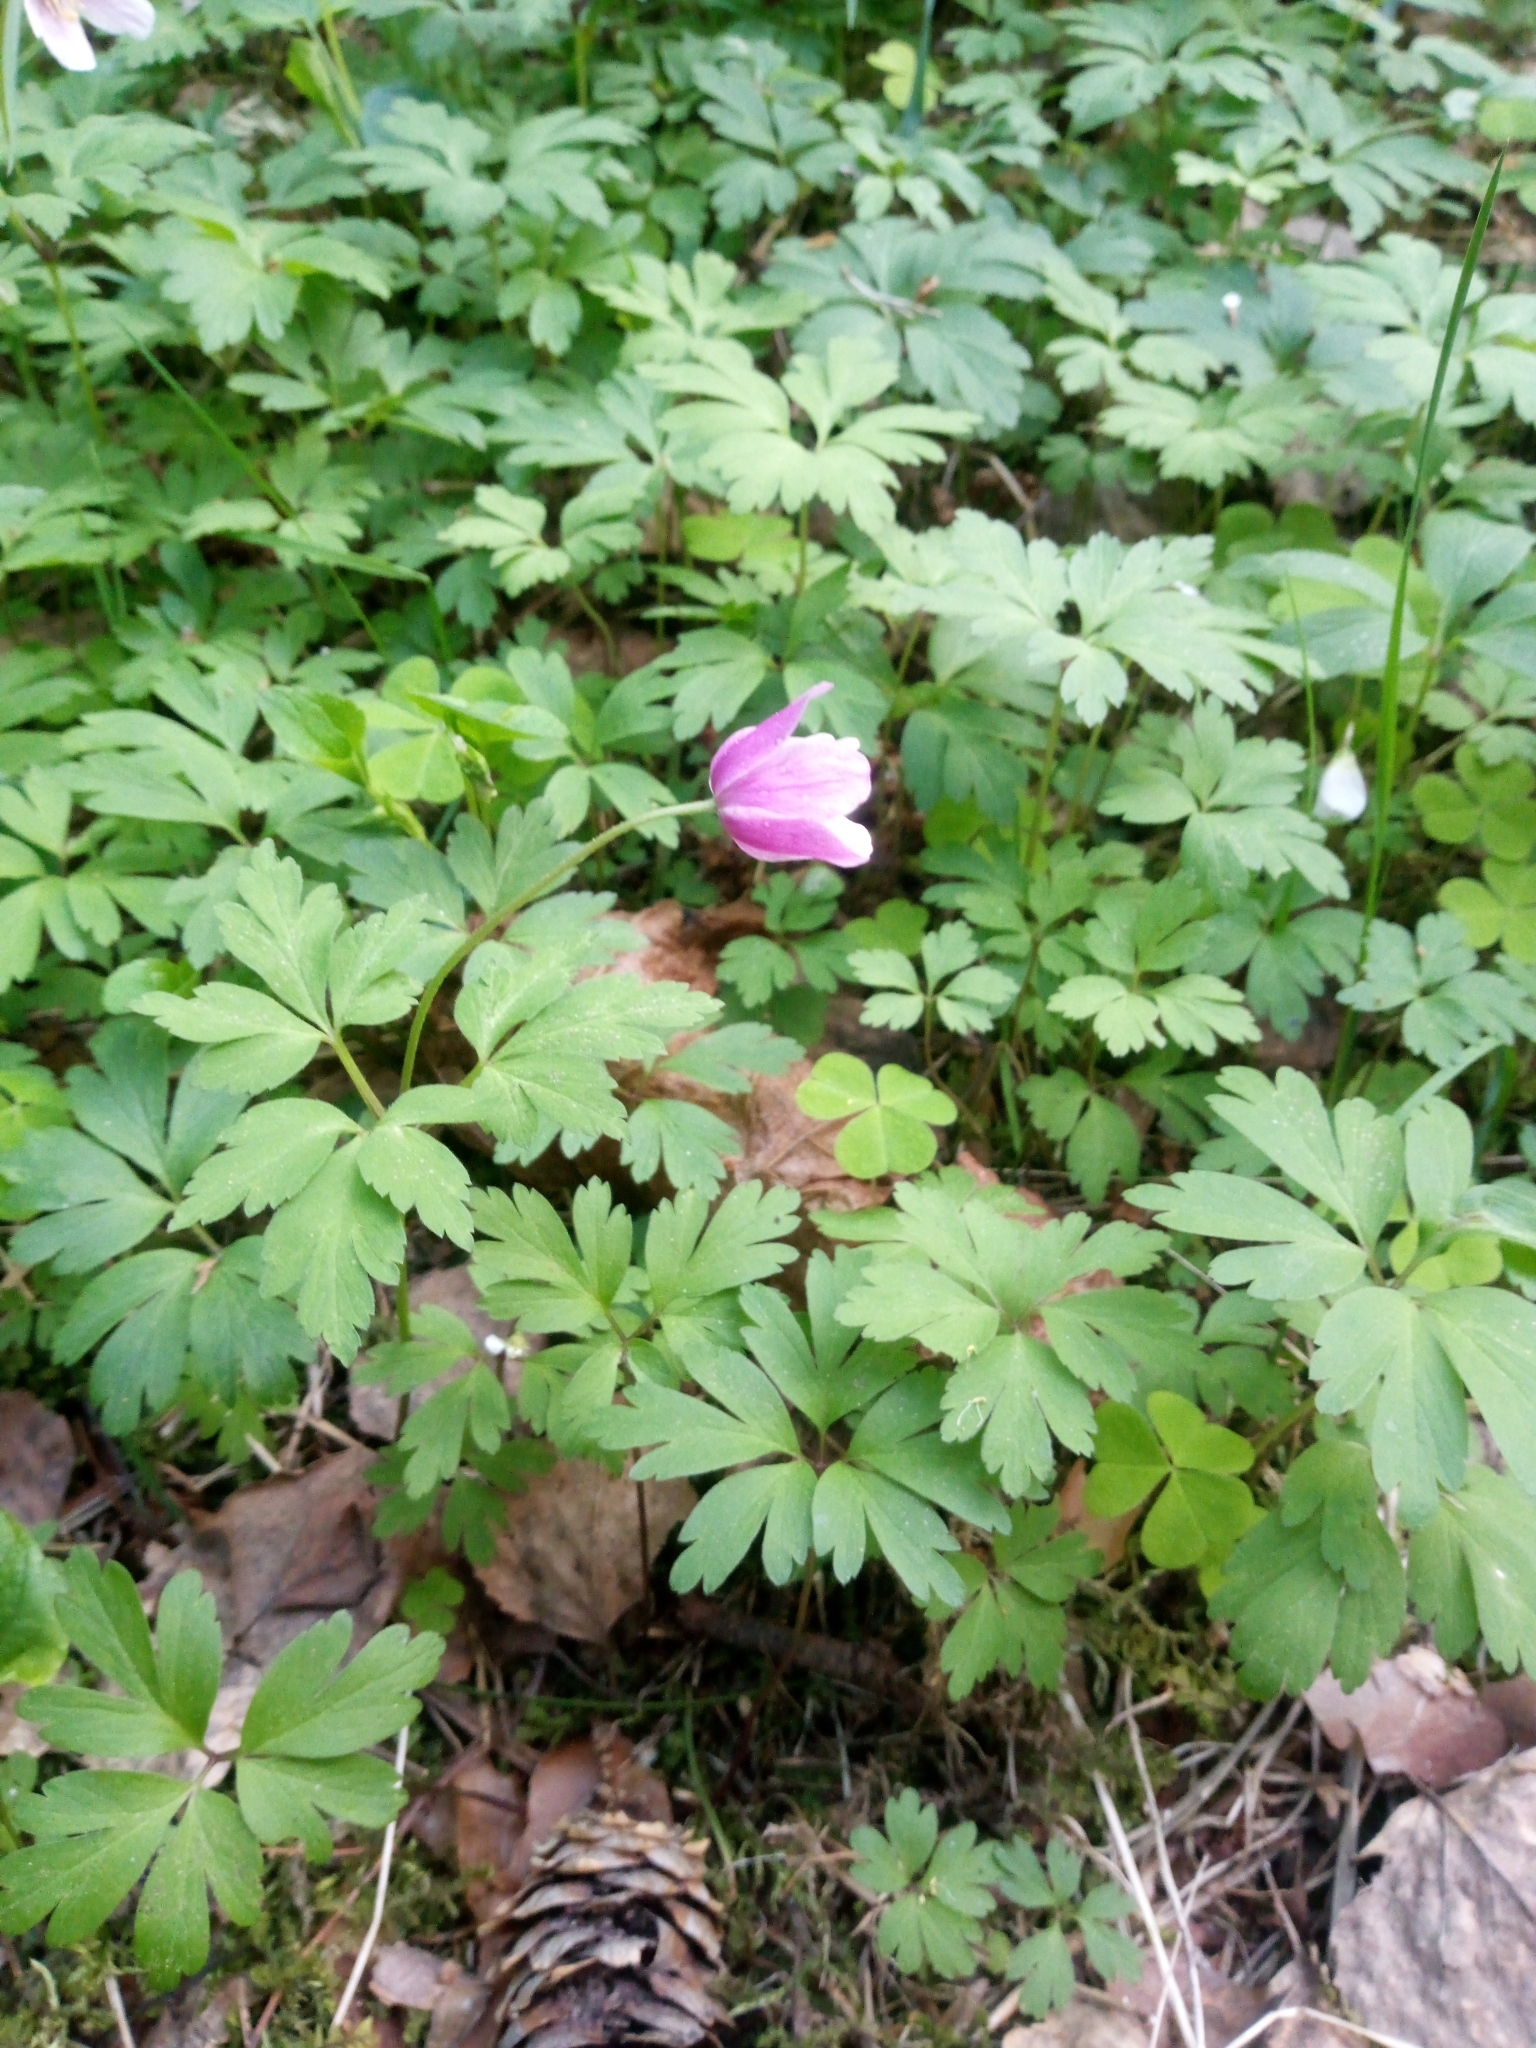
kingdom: Plantae
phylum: Tracheophyta
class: Magnoliopsida
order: Ranunculales
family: Ranunculaceae
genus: Anemone
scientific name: Anemone nemorosa
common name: Wood anemone
